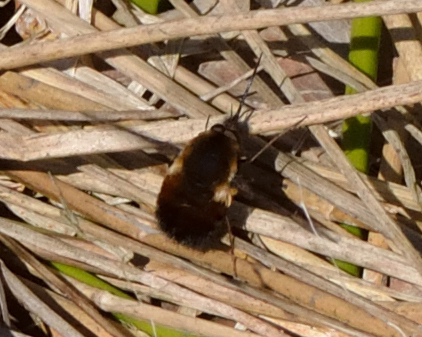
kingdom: Animalia
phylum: Arthropoda
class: Insecta
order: Diptera
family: Bombyliidae
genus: Bombylius
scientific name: Bombylius discolor
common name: Dotted bee-fly
